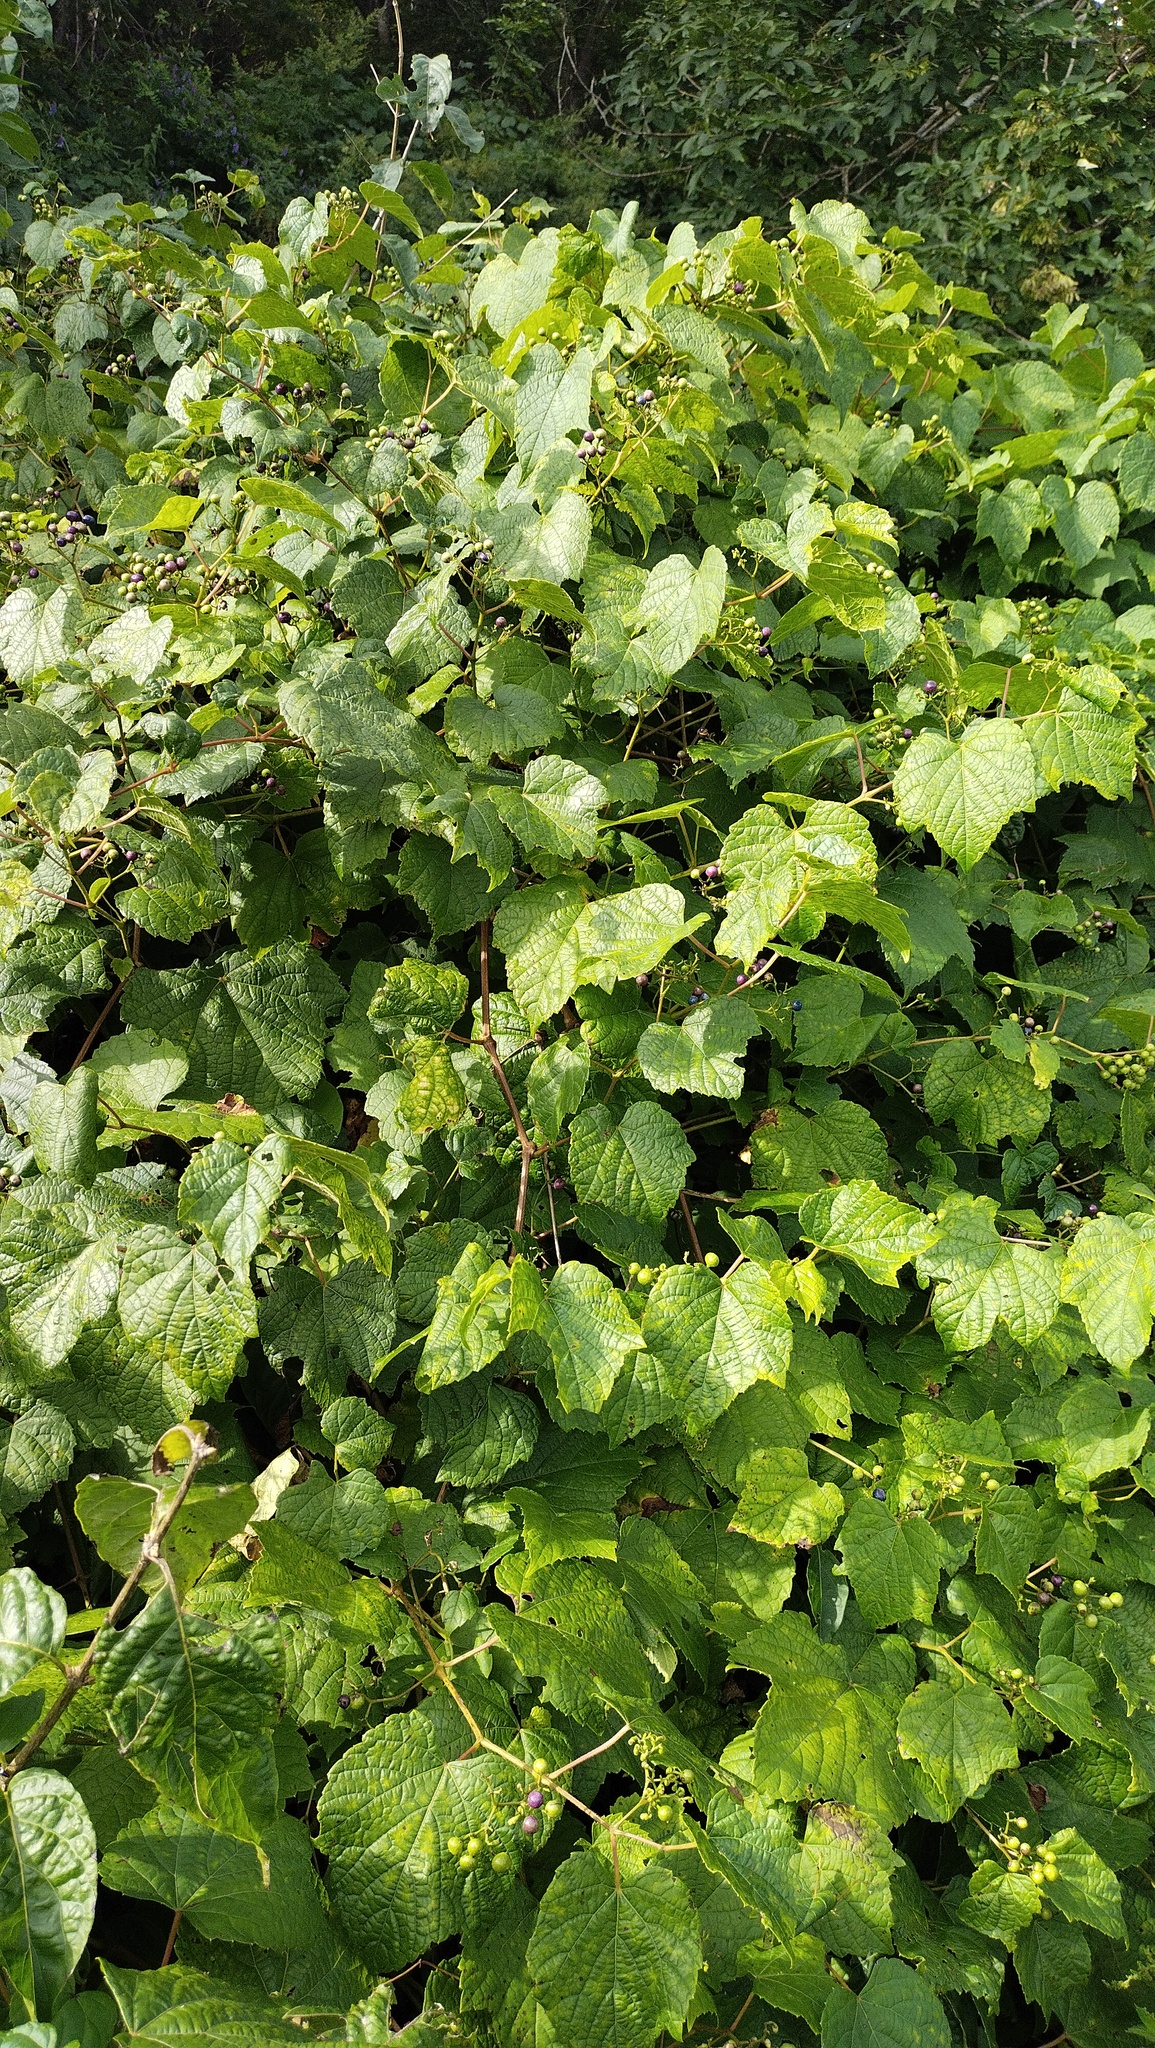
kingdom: Plantae
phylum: Tracheophyta
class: Magnoliopsida
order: Vitales
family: Vitaceae
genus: Ampelopsis
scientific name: Ampelopsis glandulosa
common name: Amur peppervine
